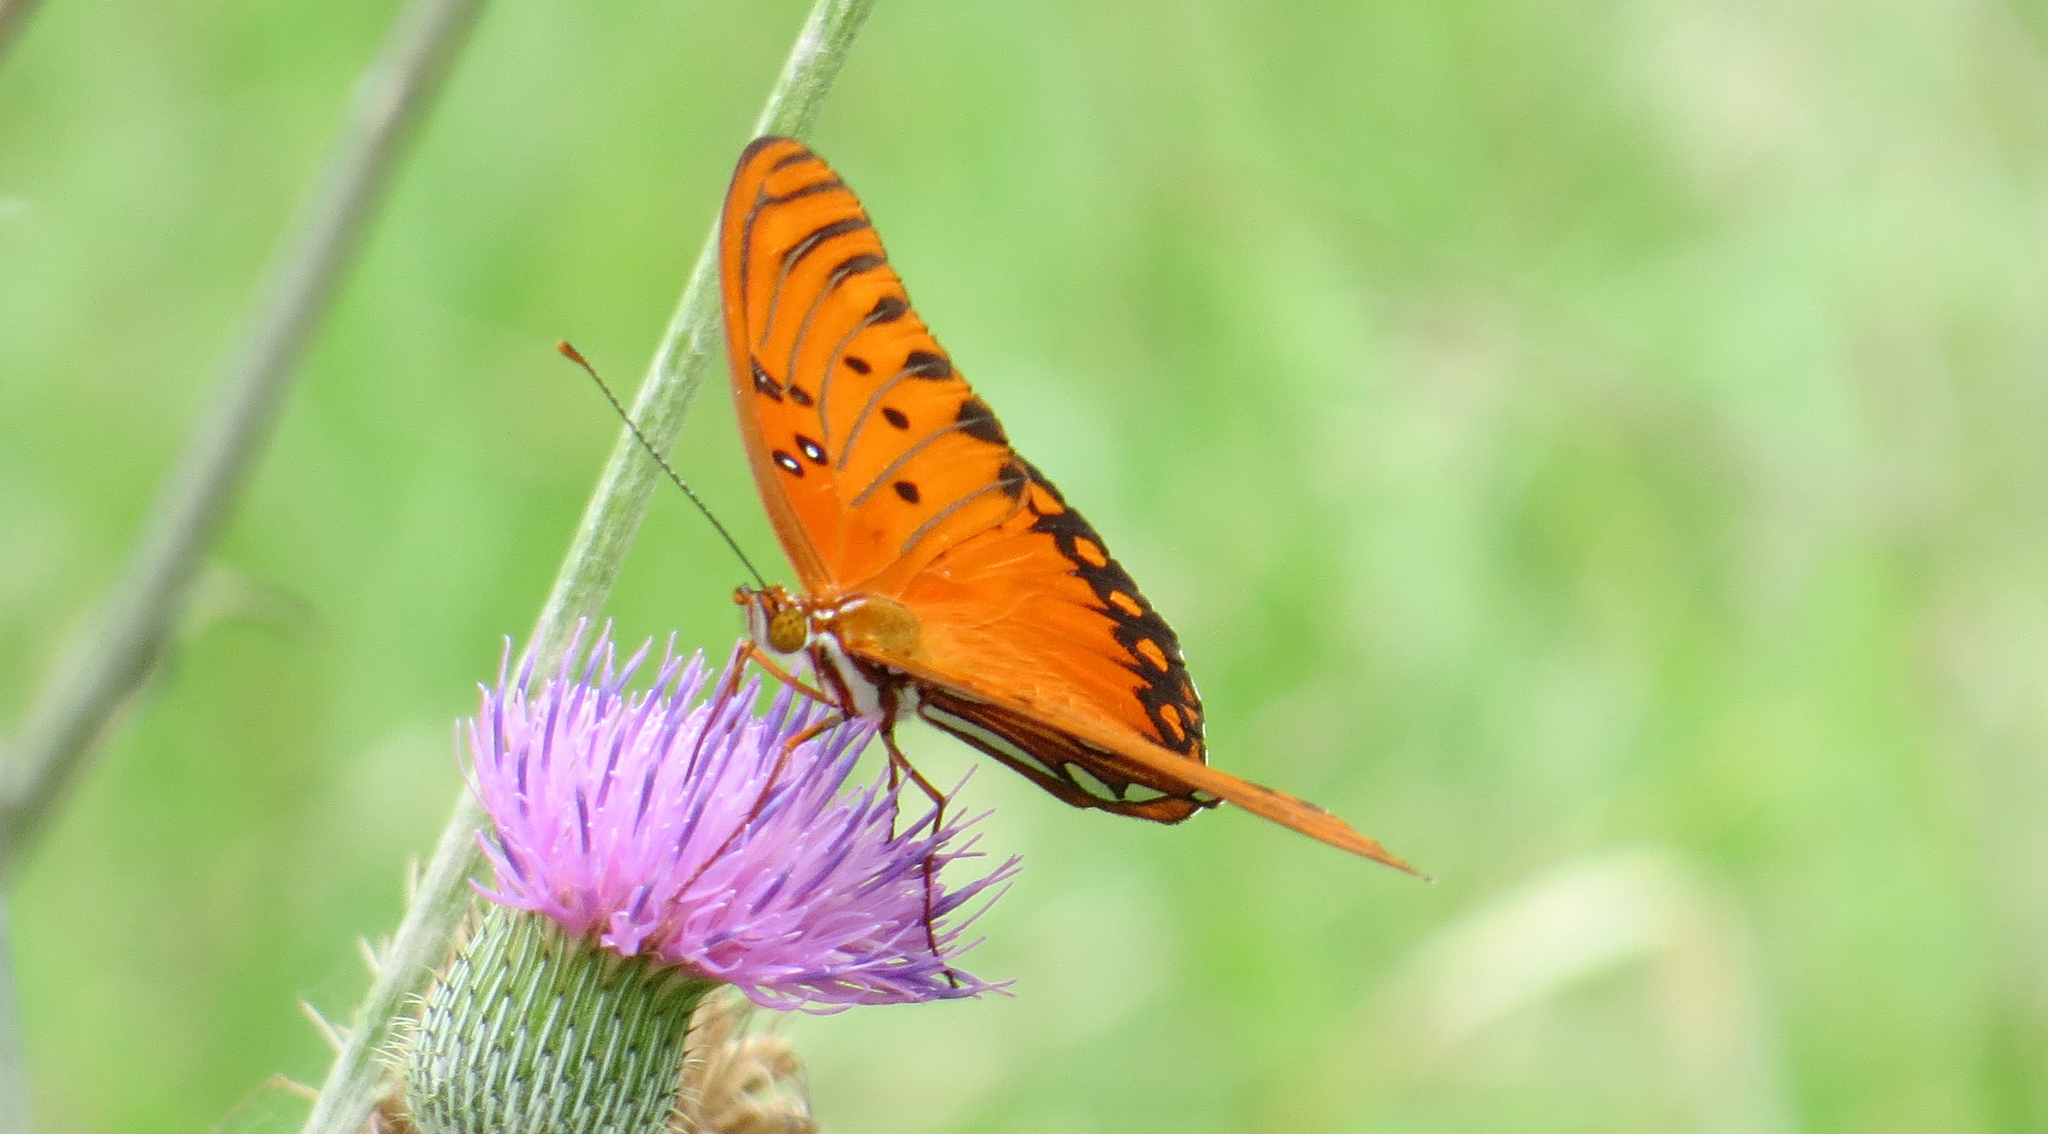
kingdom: Animalia
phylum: Arthropoda
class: Insecta
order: Lepidoptera
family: Nymphalidae
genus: Dione
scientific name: Dione vanillae
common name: Gulf fritillary
